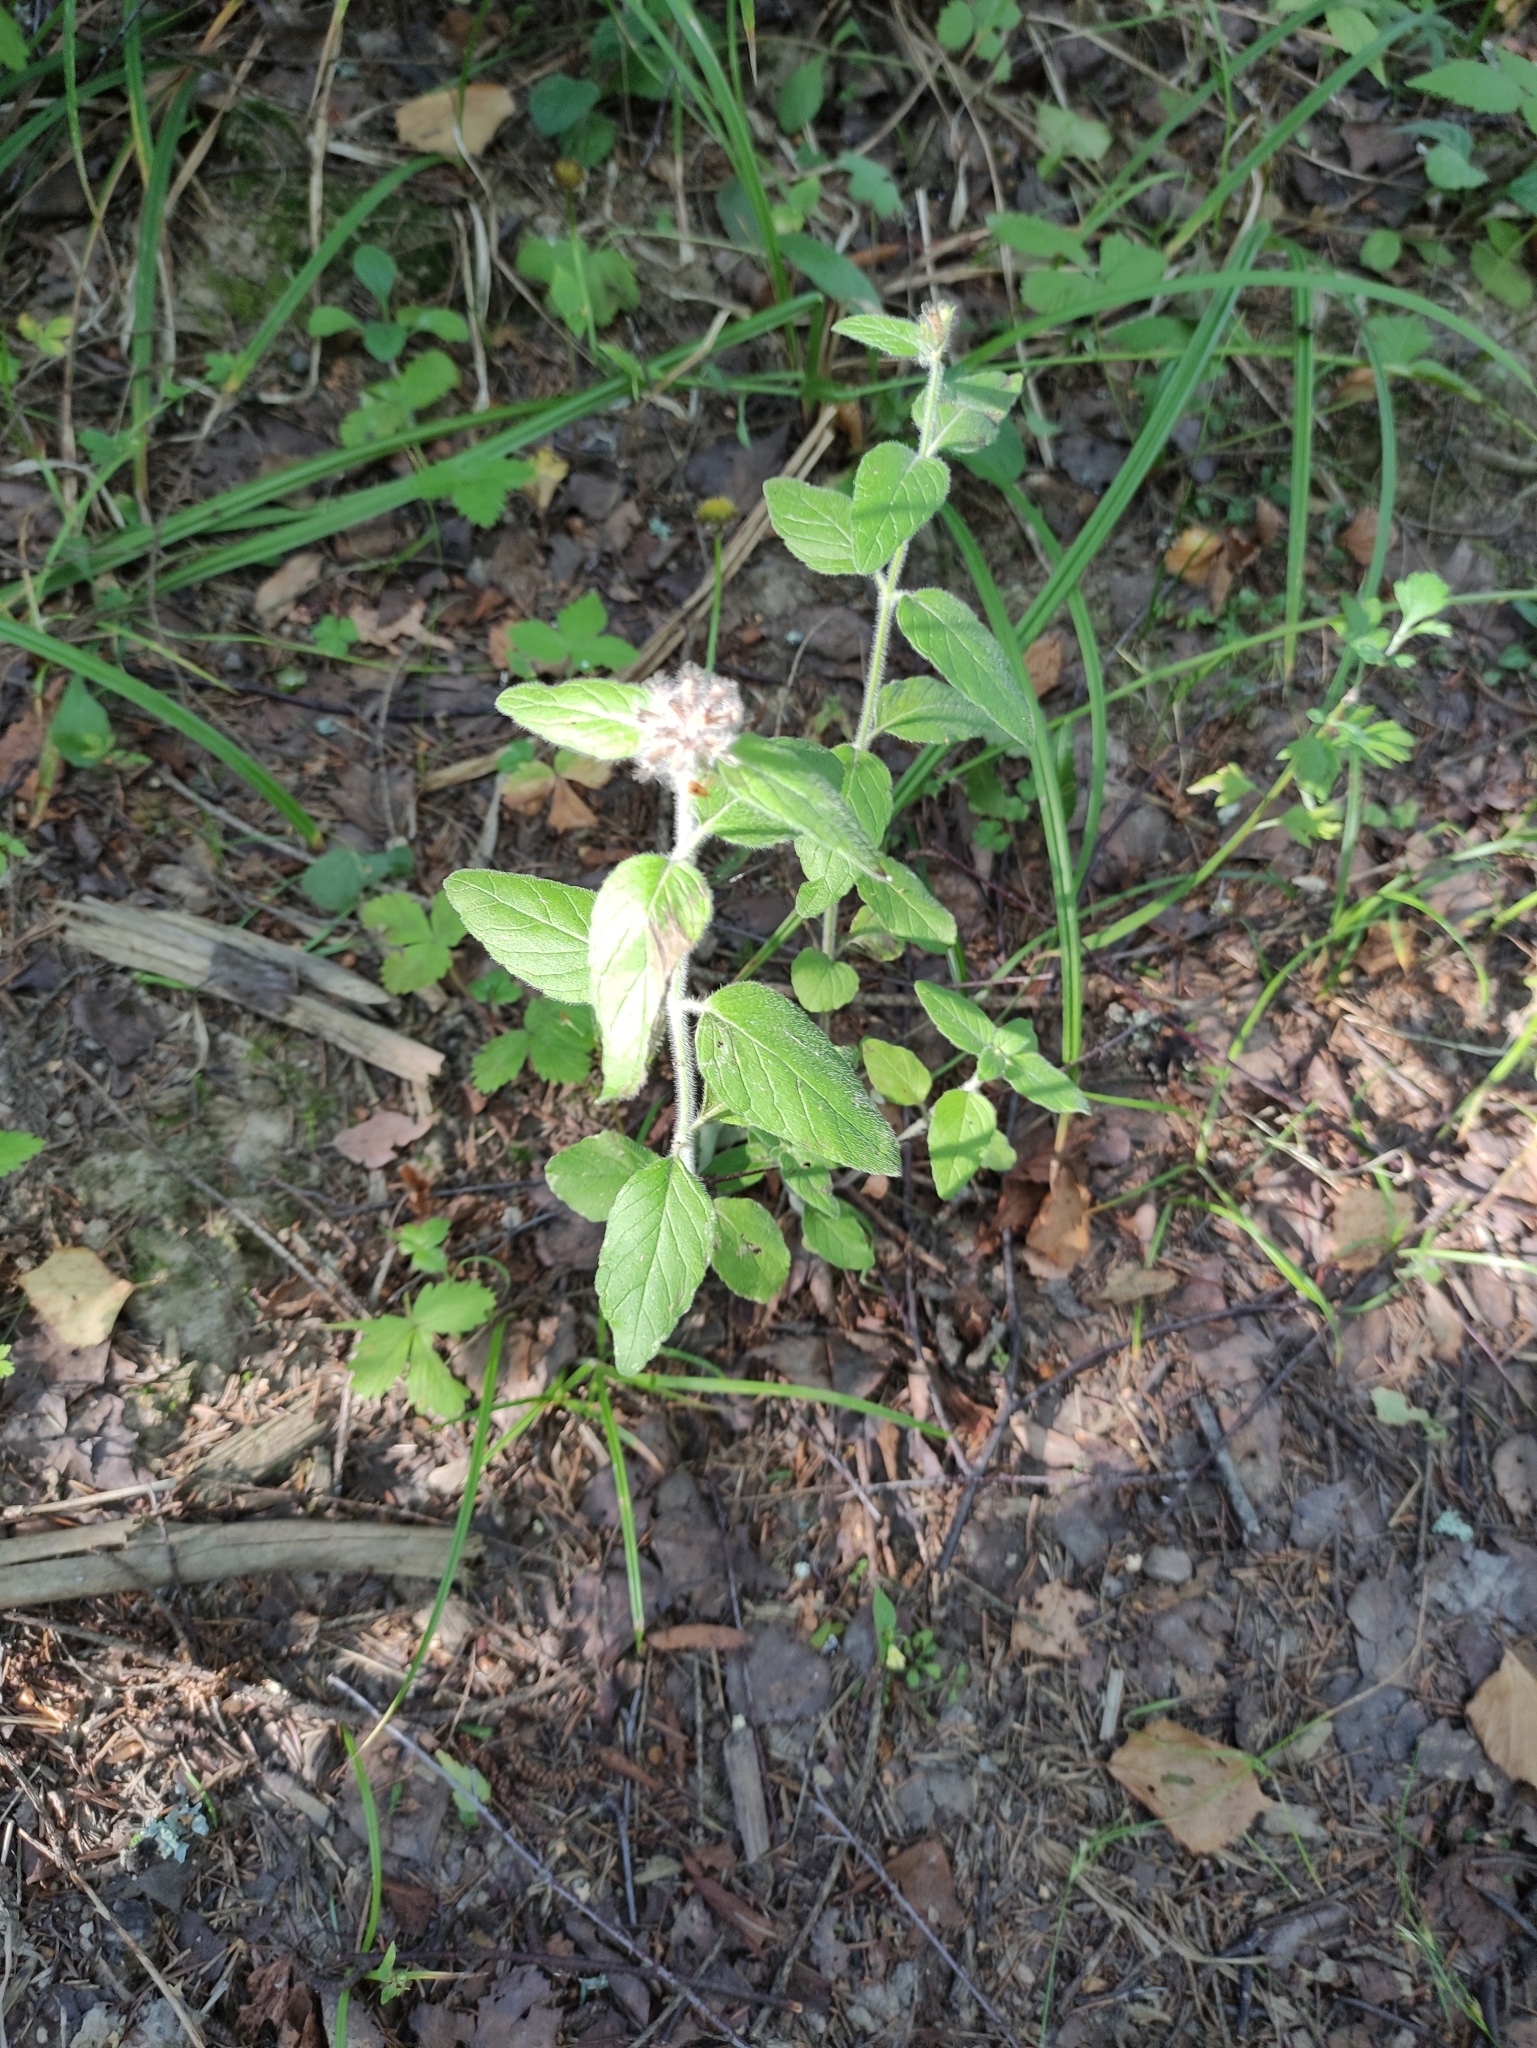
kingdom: Plantae
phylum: Tracheophyta
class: Magnoliopsida
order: Lamiales
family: Lamiaceae
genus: Clinopodium
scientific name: Clinopodium vulgare
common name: Wild basil
